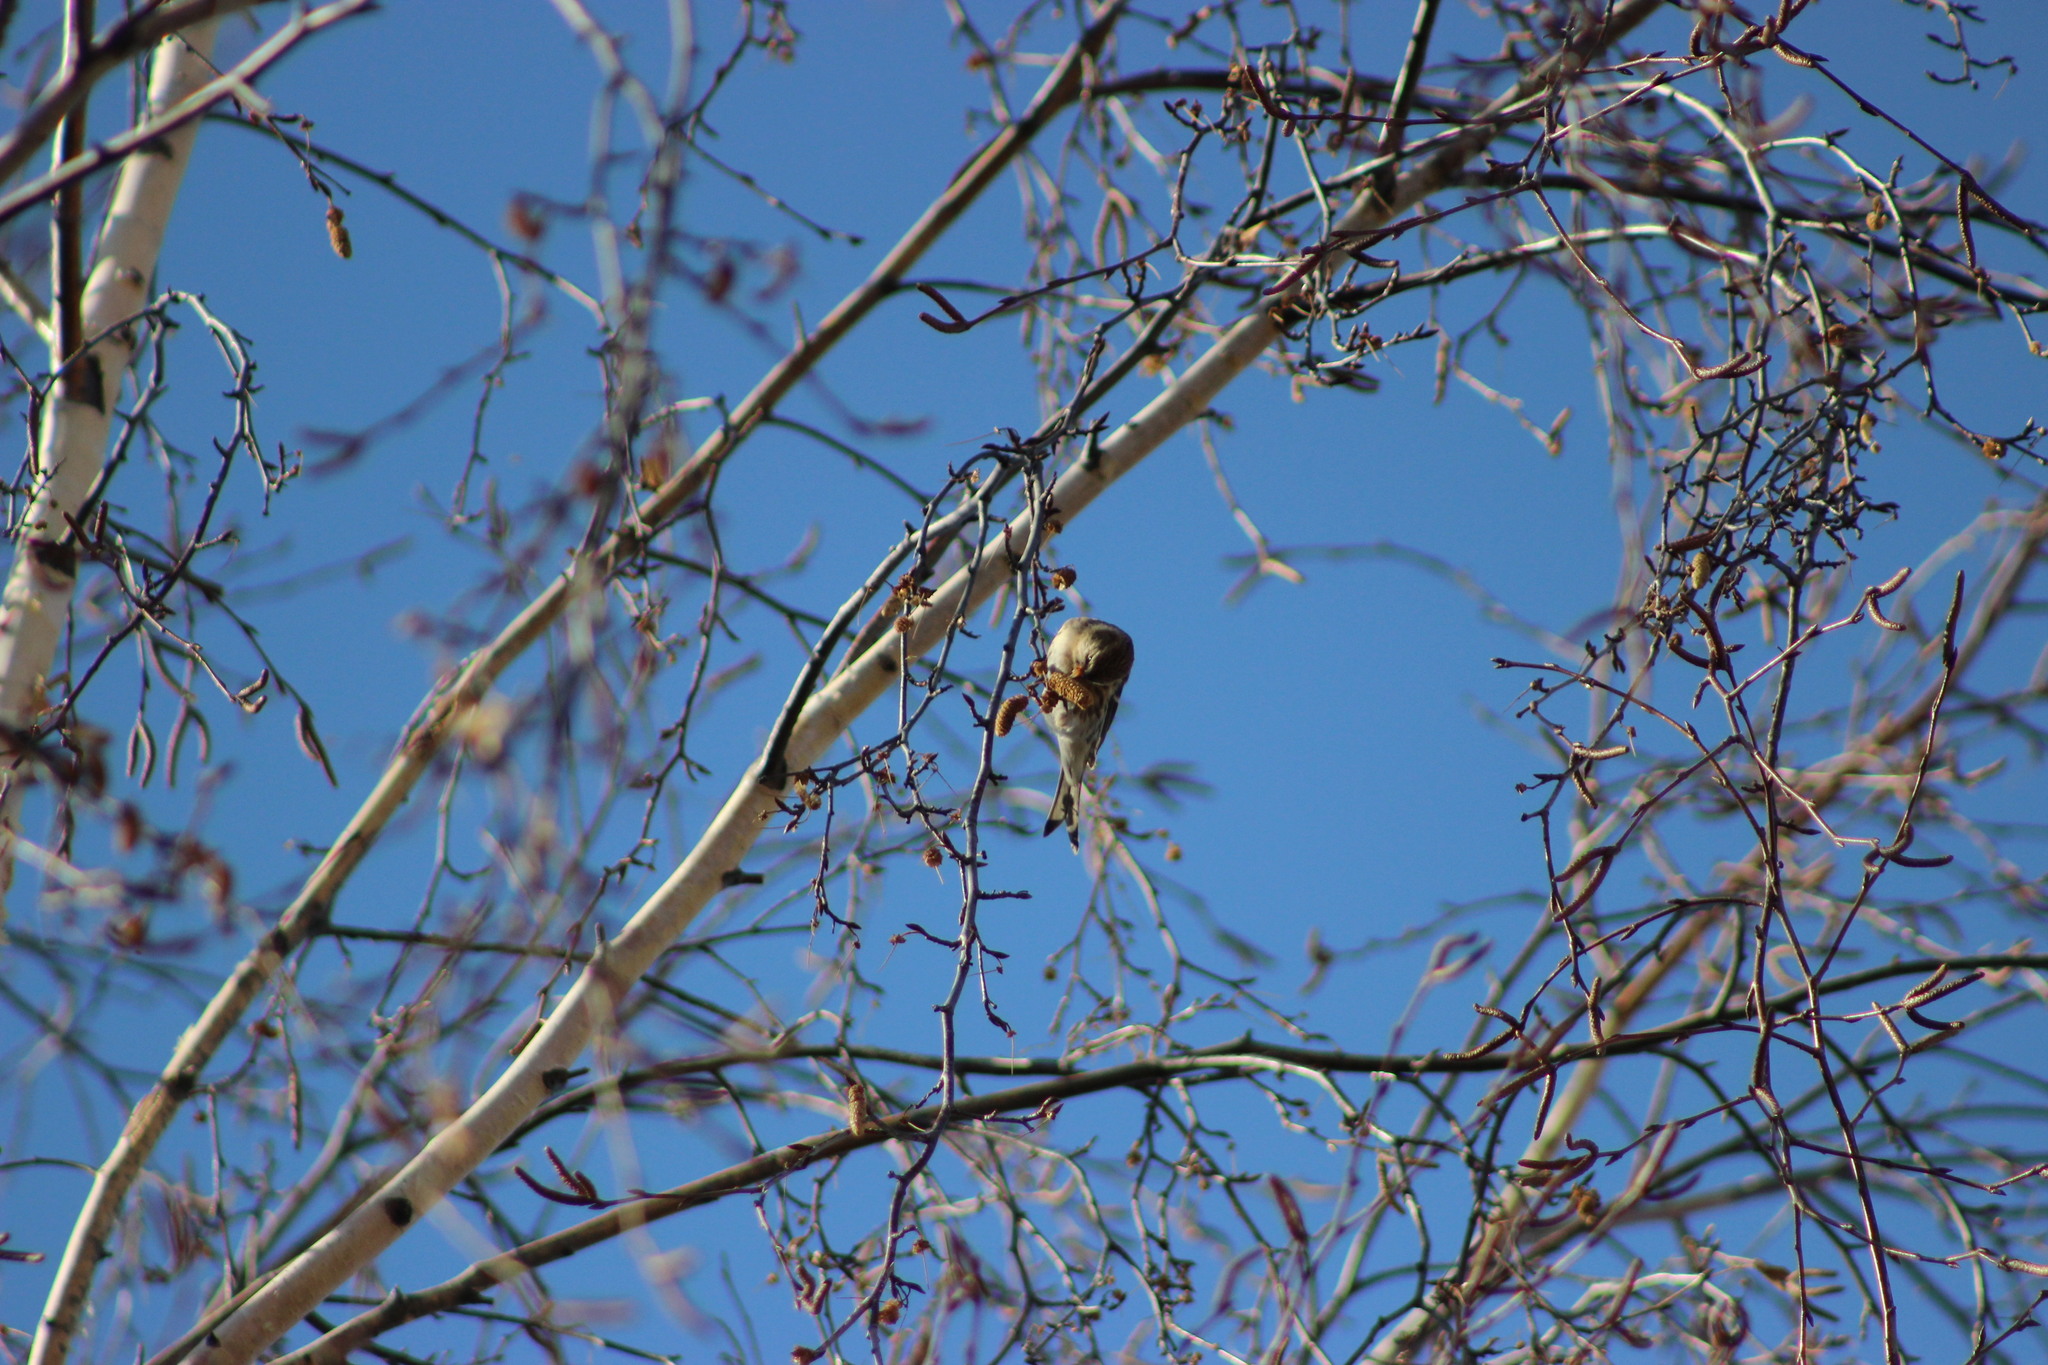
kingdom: Animalia
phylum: Chordata
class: Aves
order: Passeriformes
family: Fringillidae
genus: Acanthis
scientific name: Acanthis flammea
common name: Common redpoll
